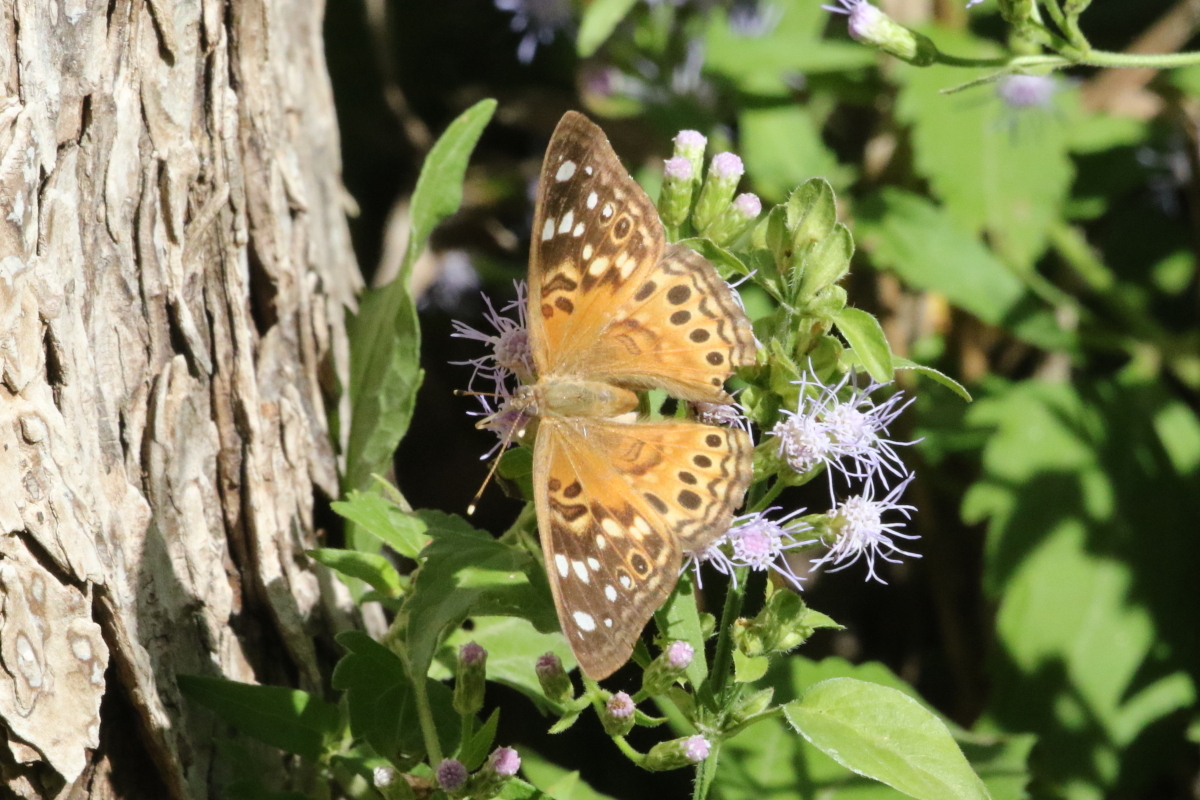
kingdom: Animalia
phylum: Arthropoda
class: Insecta
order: Lepidoptera
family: Nymphalidae
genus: Asterocampa
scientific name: Asterocampa celtis
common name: Hackberry emperor
